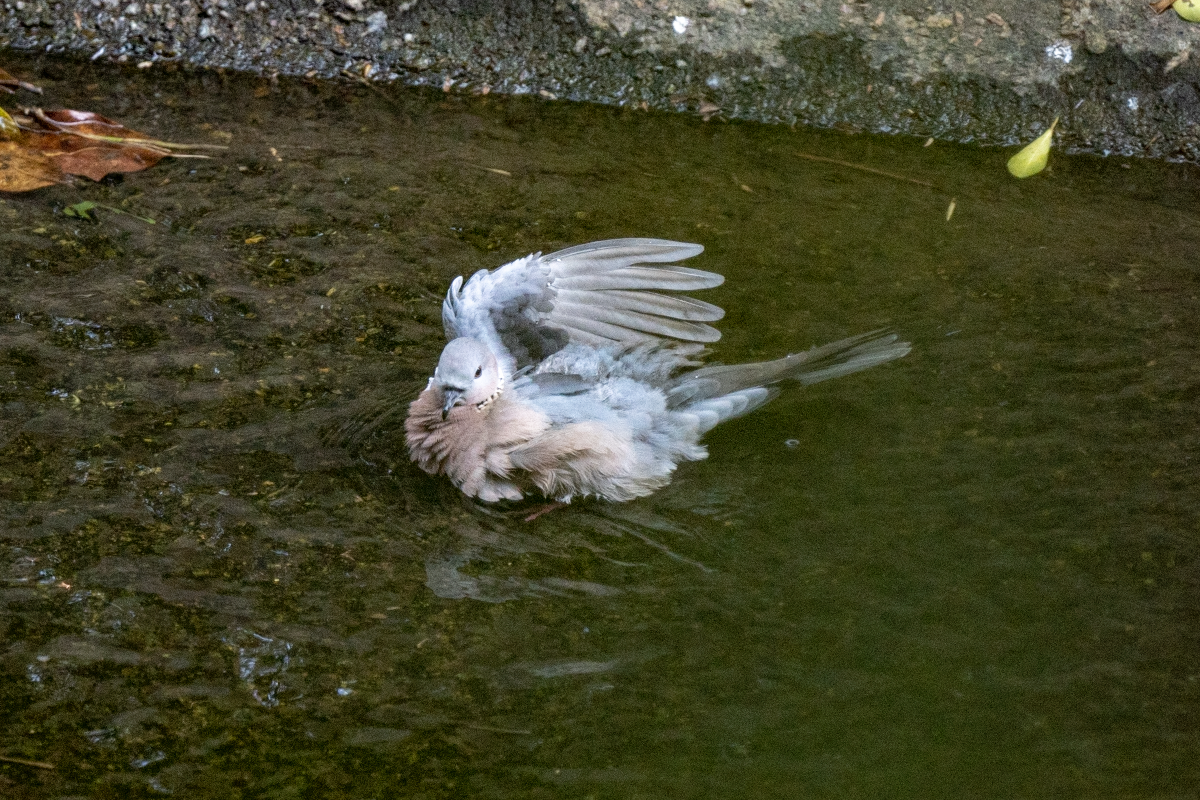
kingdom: Animalia
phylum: Chordata
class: Aves
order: Columbiformes
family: Columbidae
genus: Spilopelia
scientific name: Spilopelia chinensis
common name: Spotted dove
